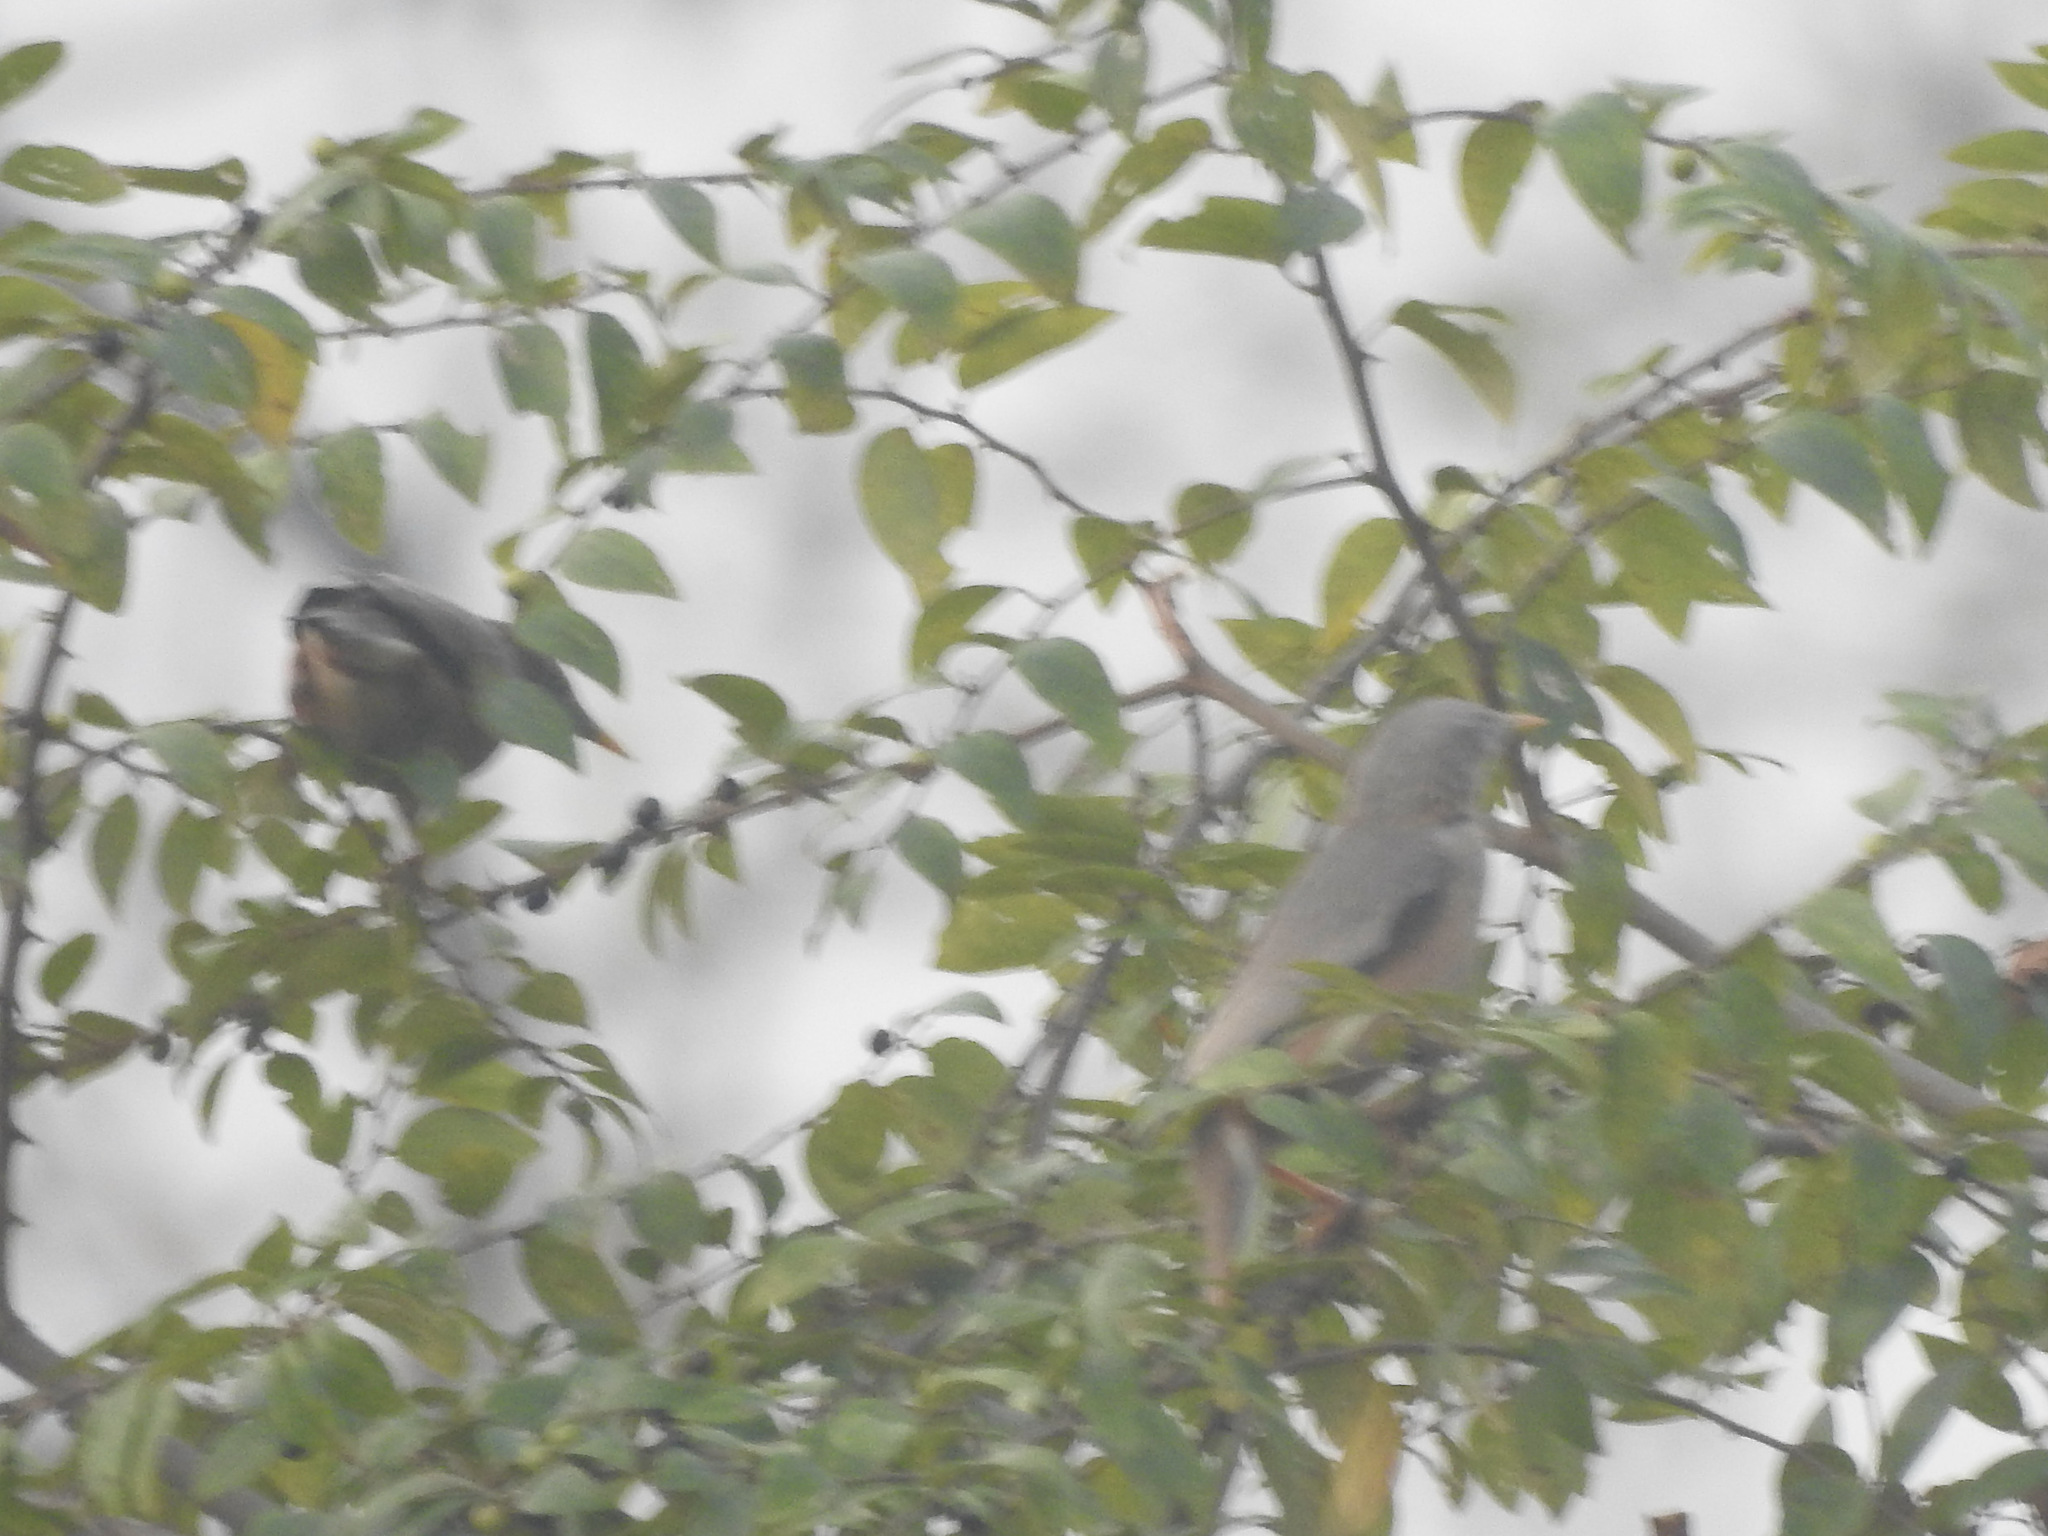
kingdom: Animalia
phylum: Chordata
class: Aves
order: Passeriformes
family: Sturnidae
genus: Sturnia
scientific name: Sturnia malabarica
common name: Chestnut-tailed starling
